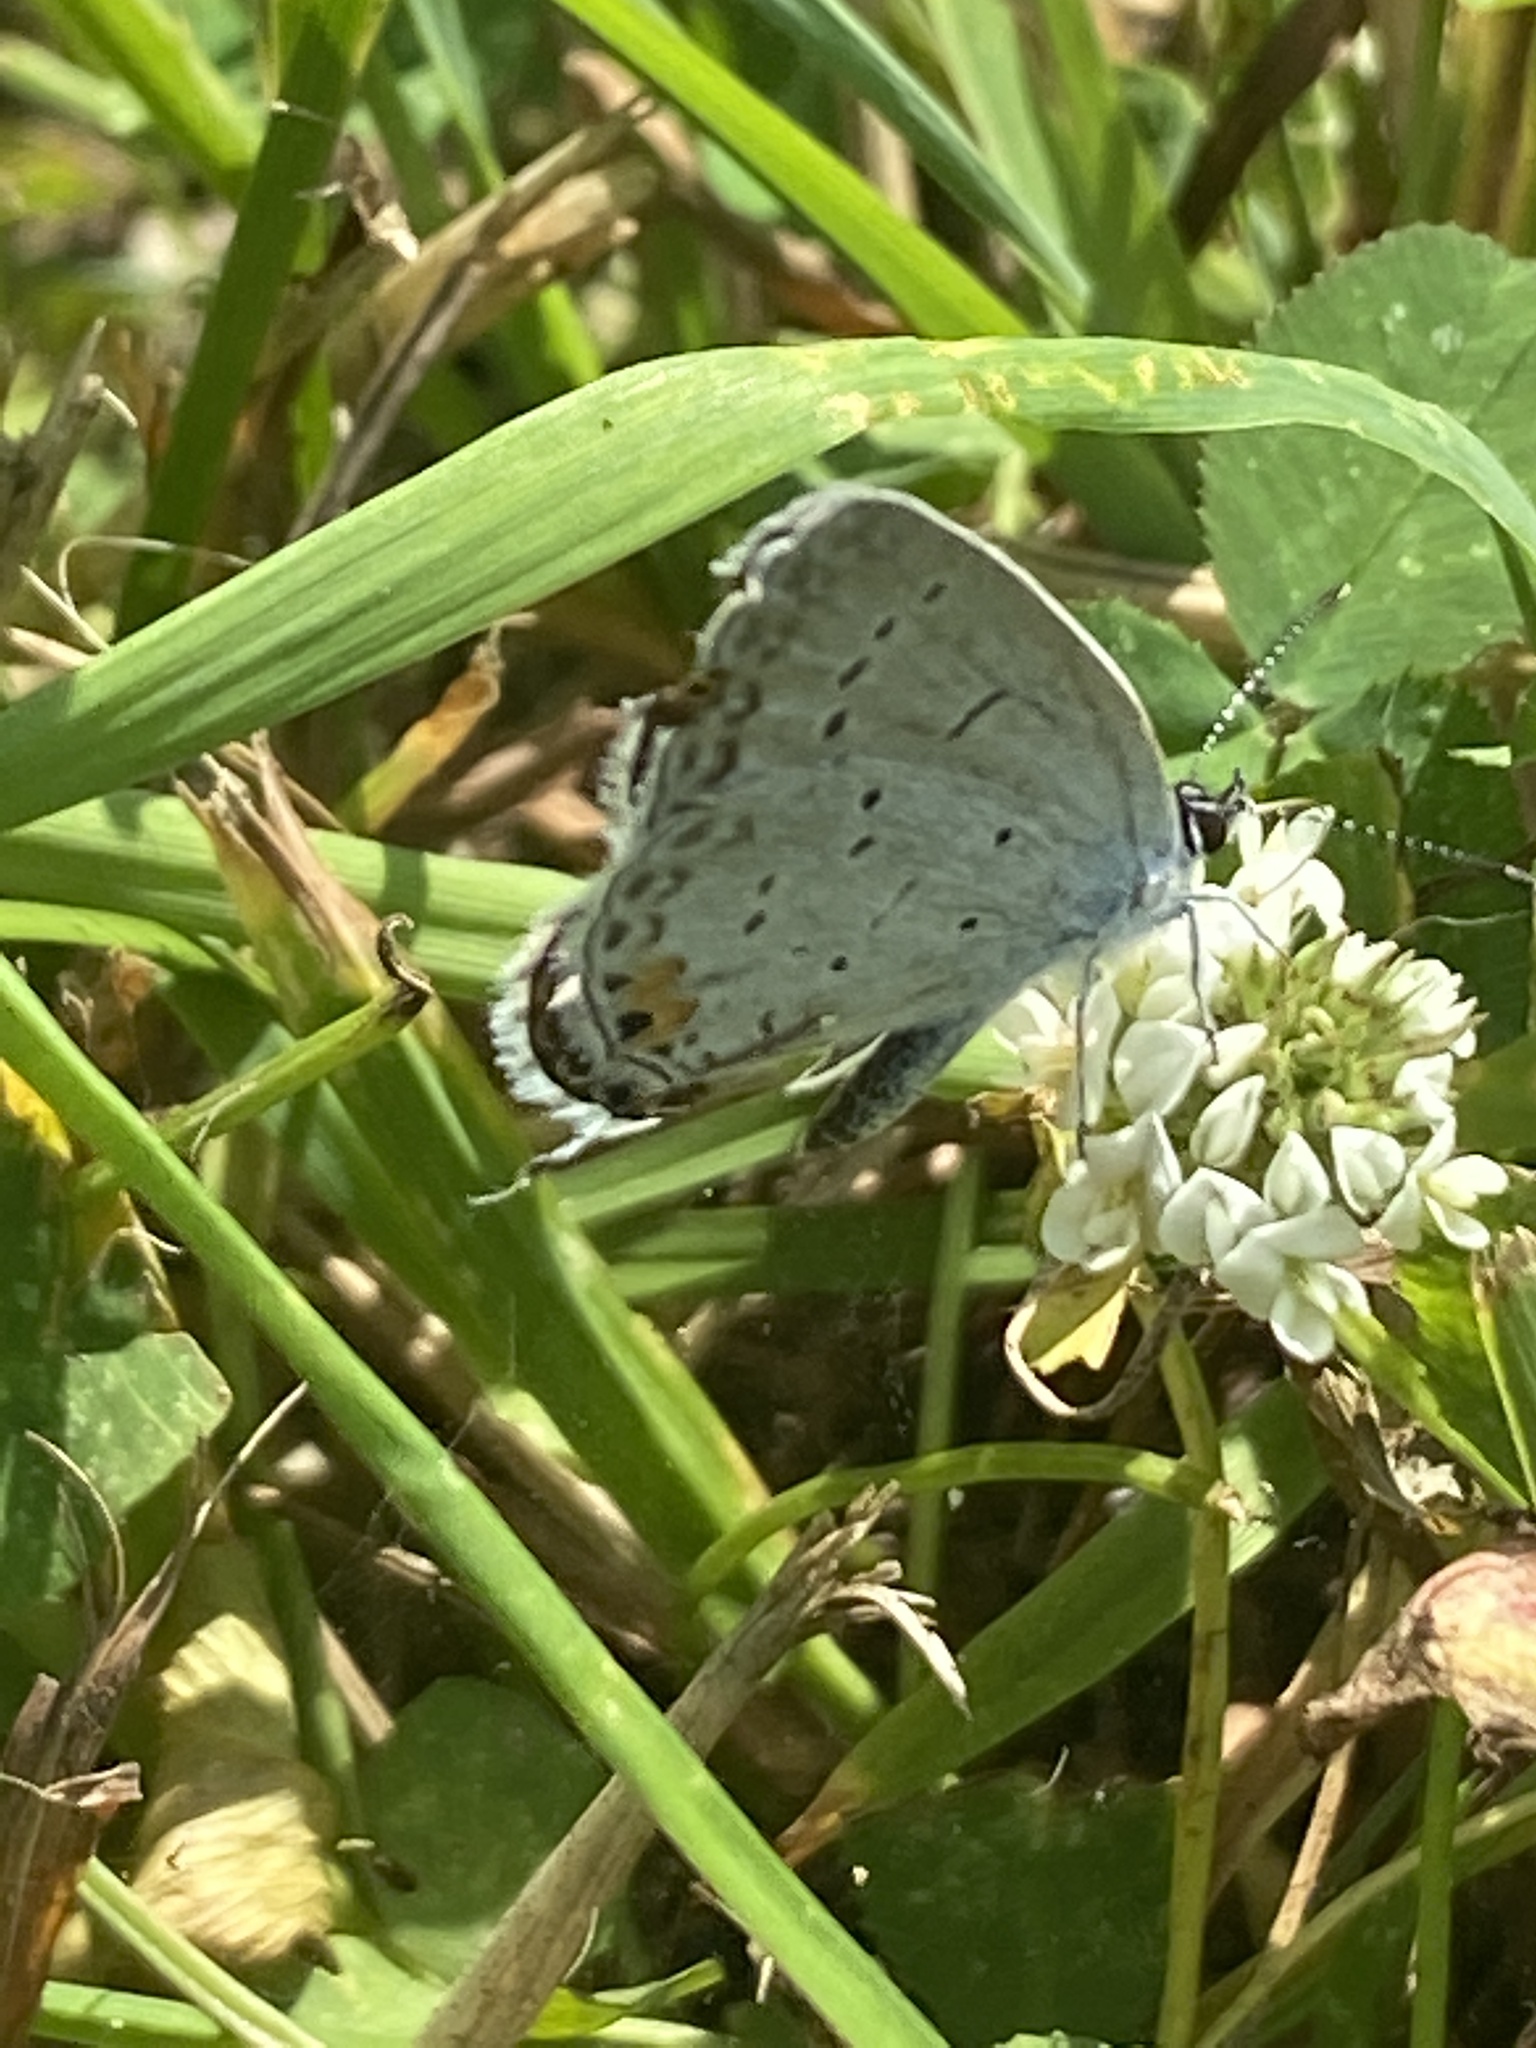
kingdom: Animalia
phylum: Arthropoda
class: Insecta
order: Lepidoptera
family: Lycaenidae
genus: Elkalyce
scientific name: Elkalyce comyntas
